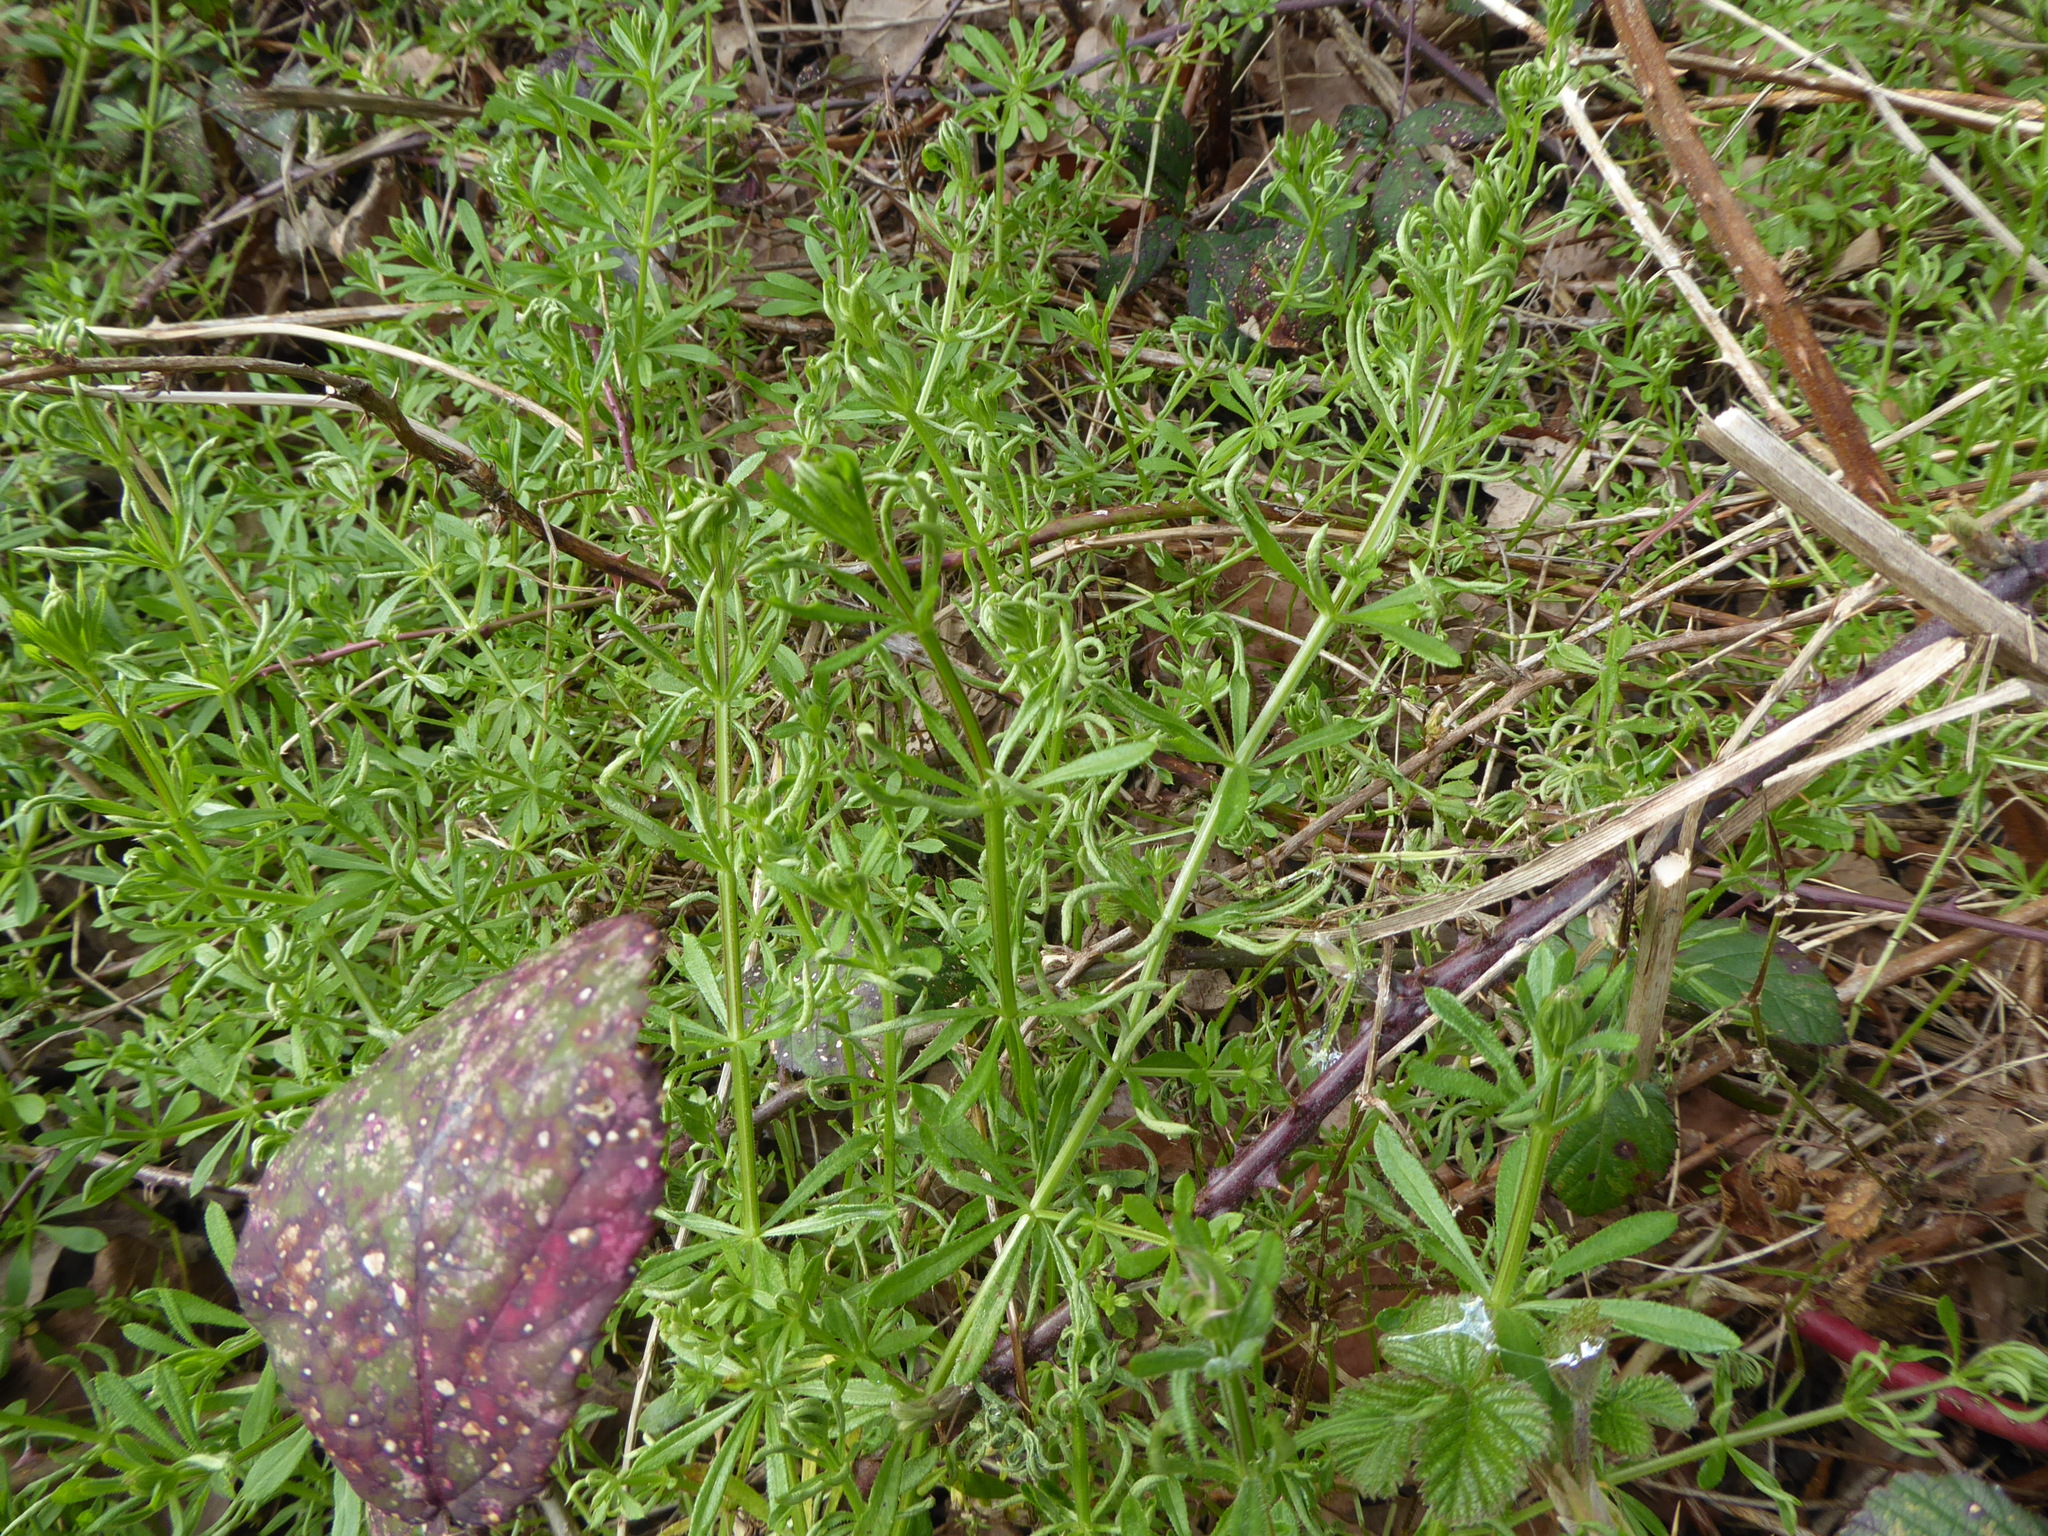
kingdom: Animalia
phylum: Arthropoda
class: Arachnida
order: Trombidiformes
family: Eriophyidae
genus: Cecidophyes
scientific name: Cecidophyes rouhollahi
